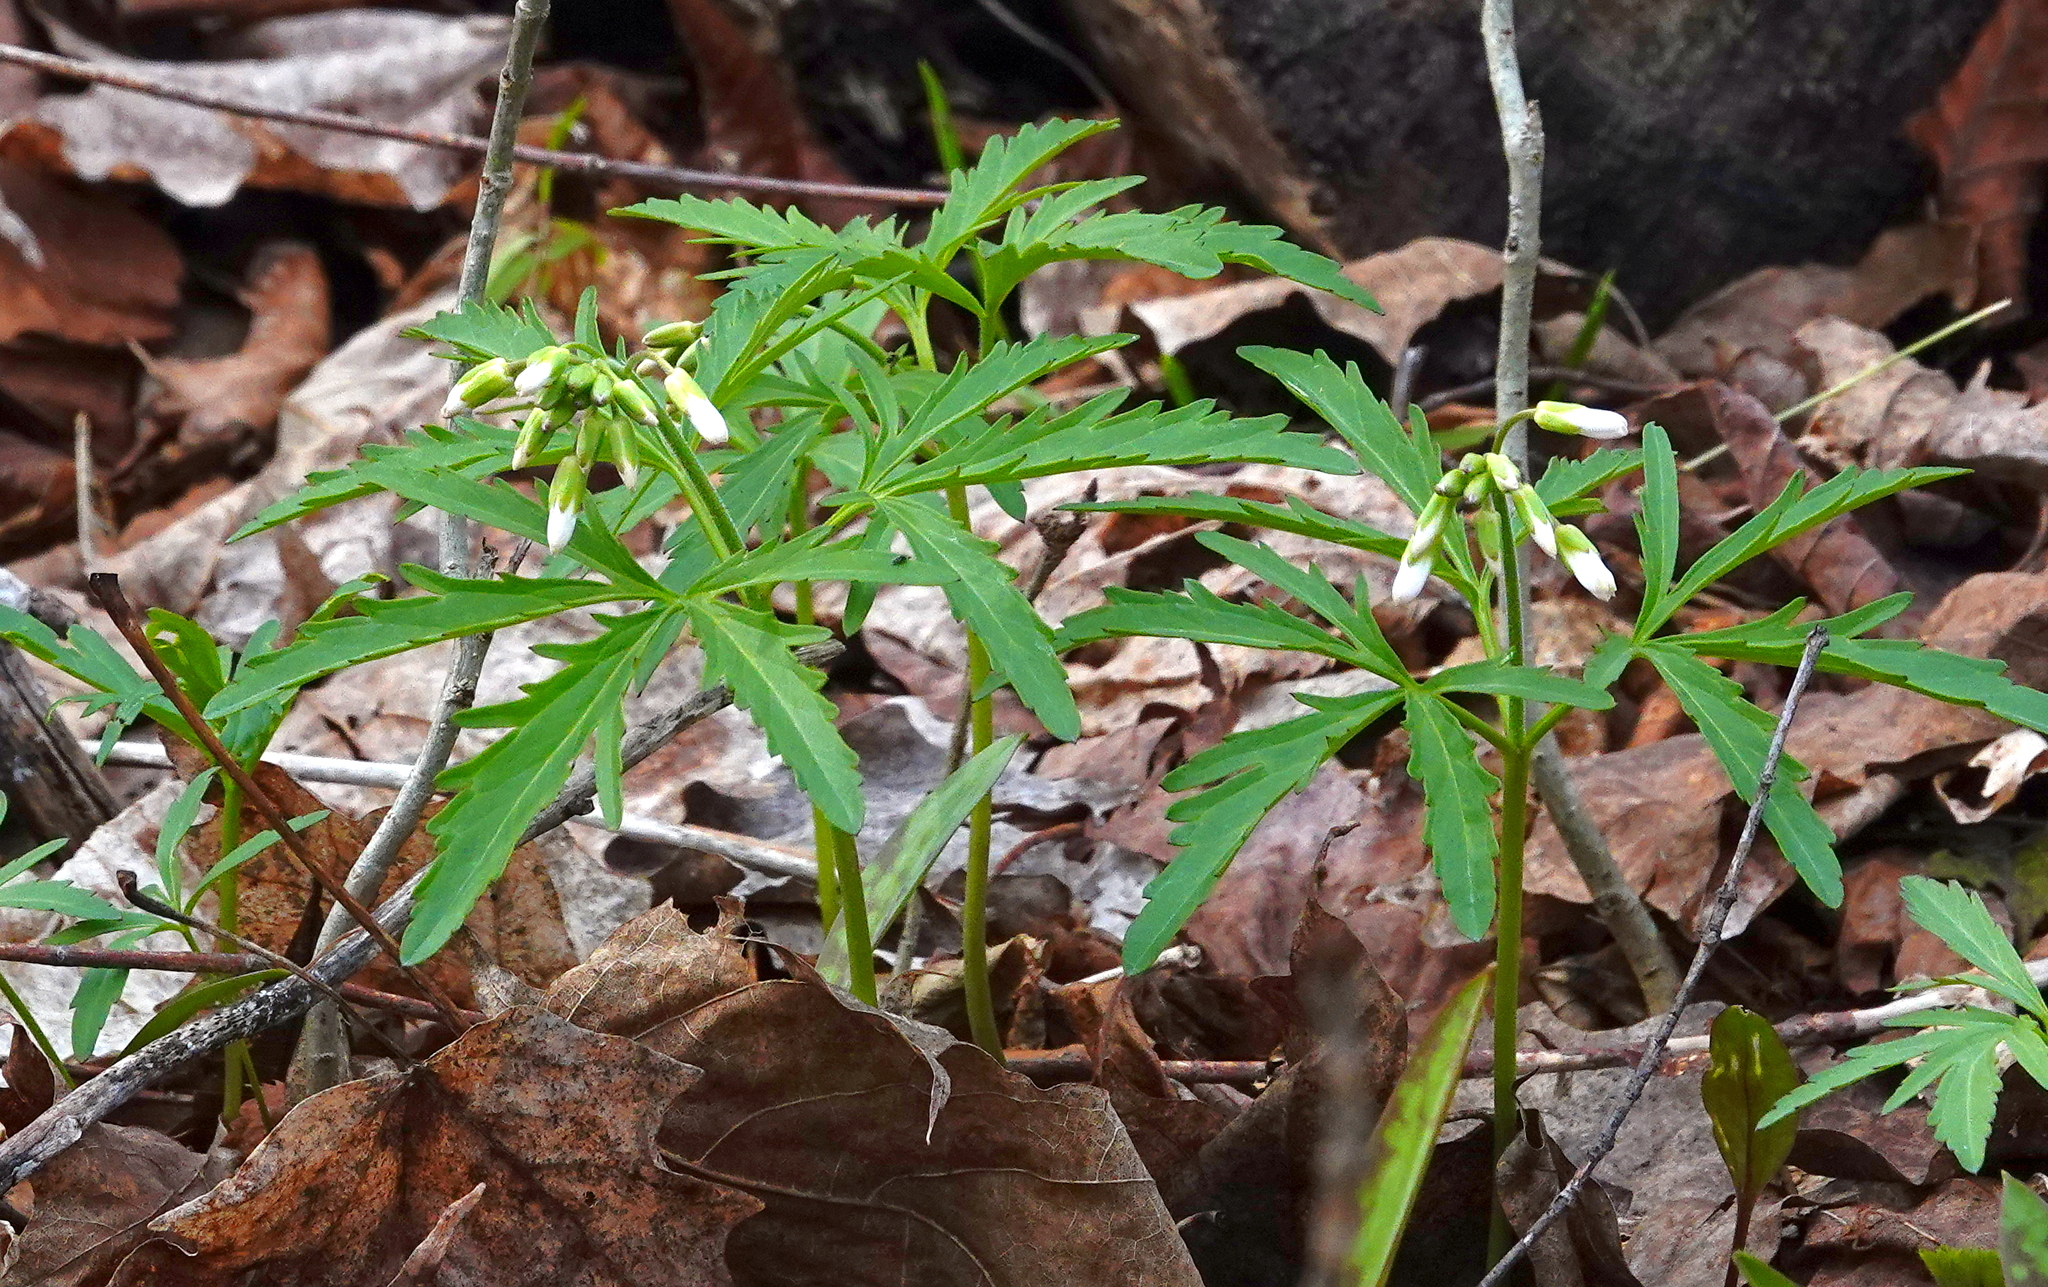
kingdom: Plantae
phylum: Tracheophyta
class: Magnoliopsida
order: Brassicales
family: Brassicaceae
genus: Cardamine
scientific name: Cardamine concatenata
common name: Cut-leaf toothcup
